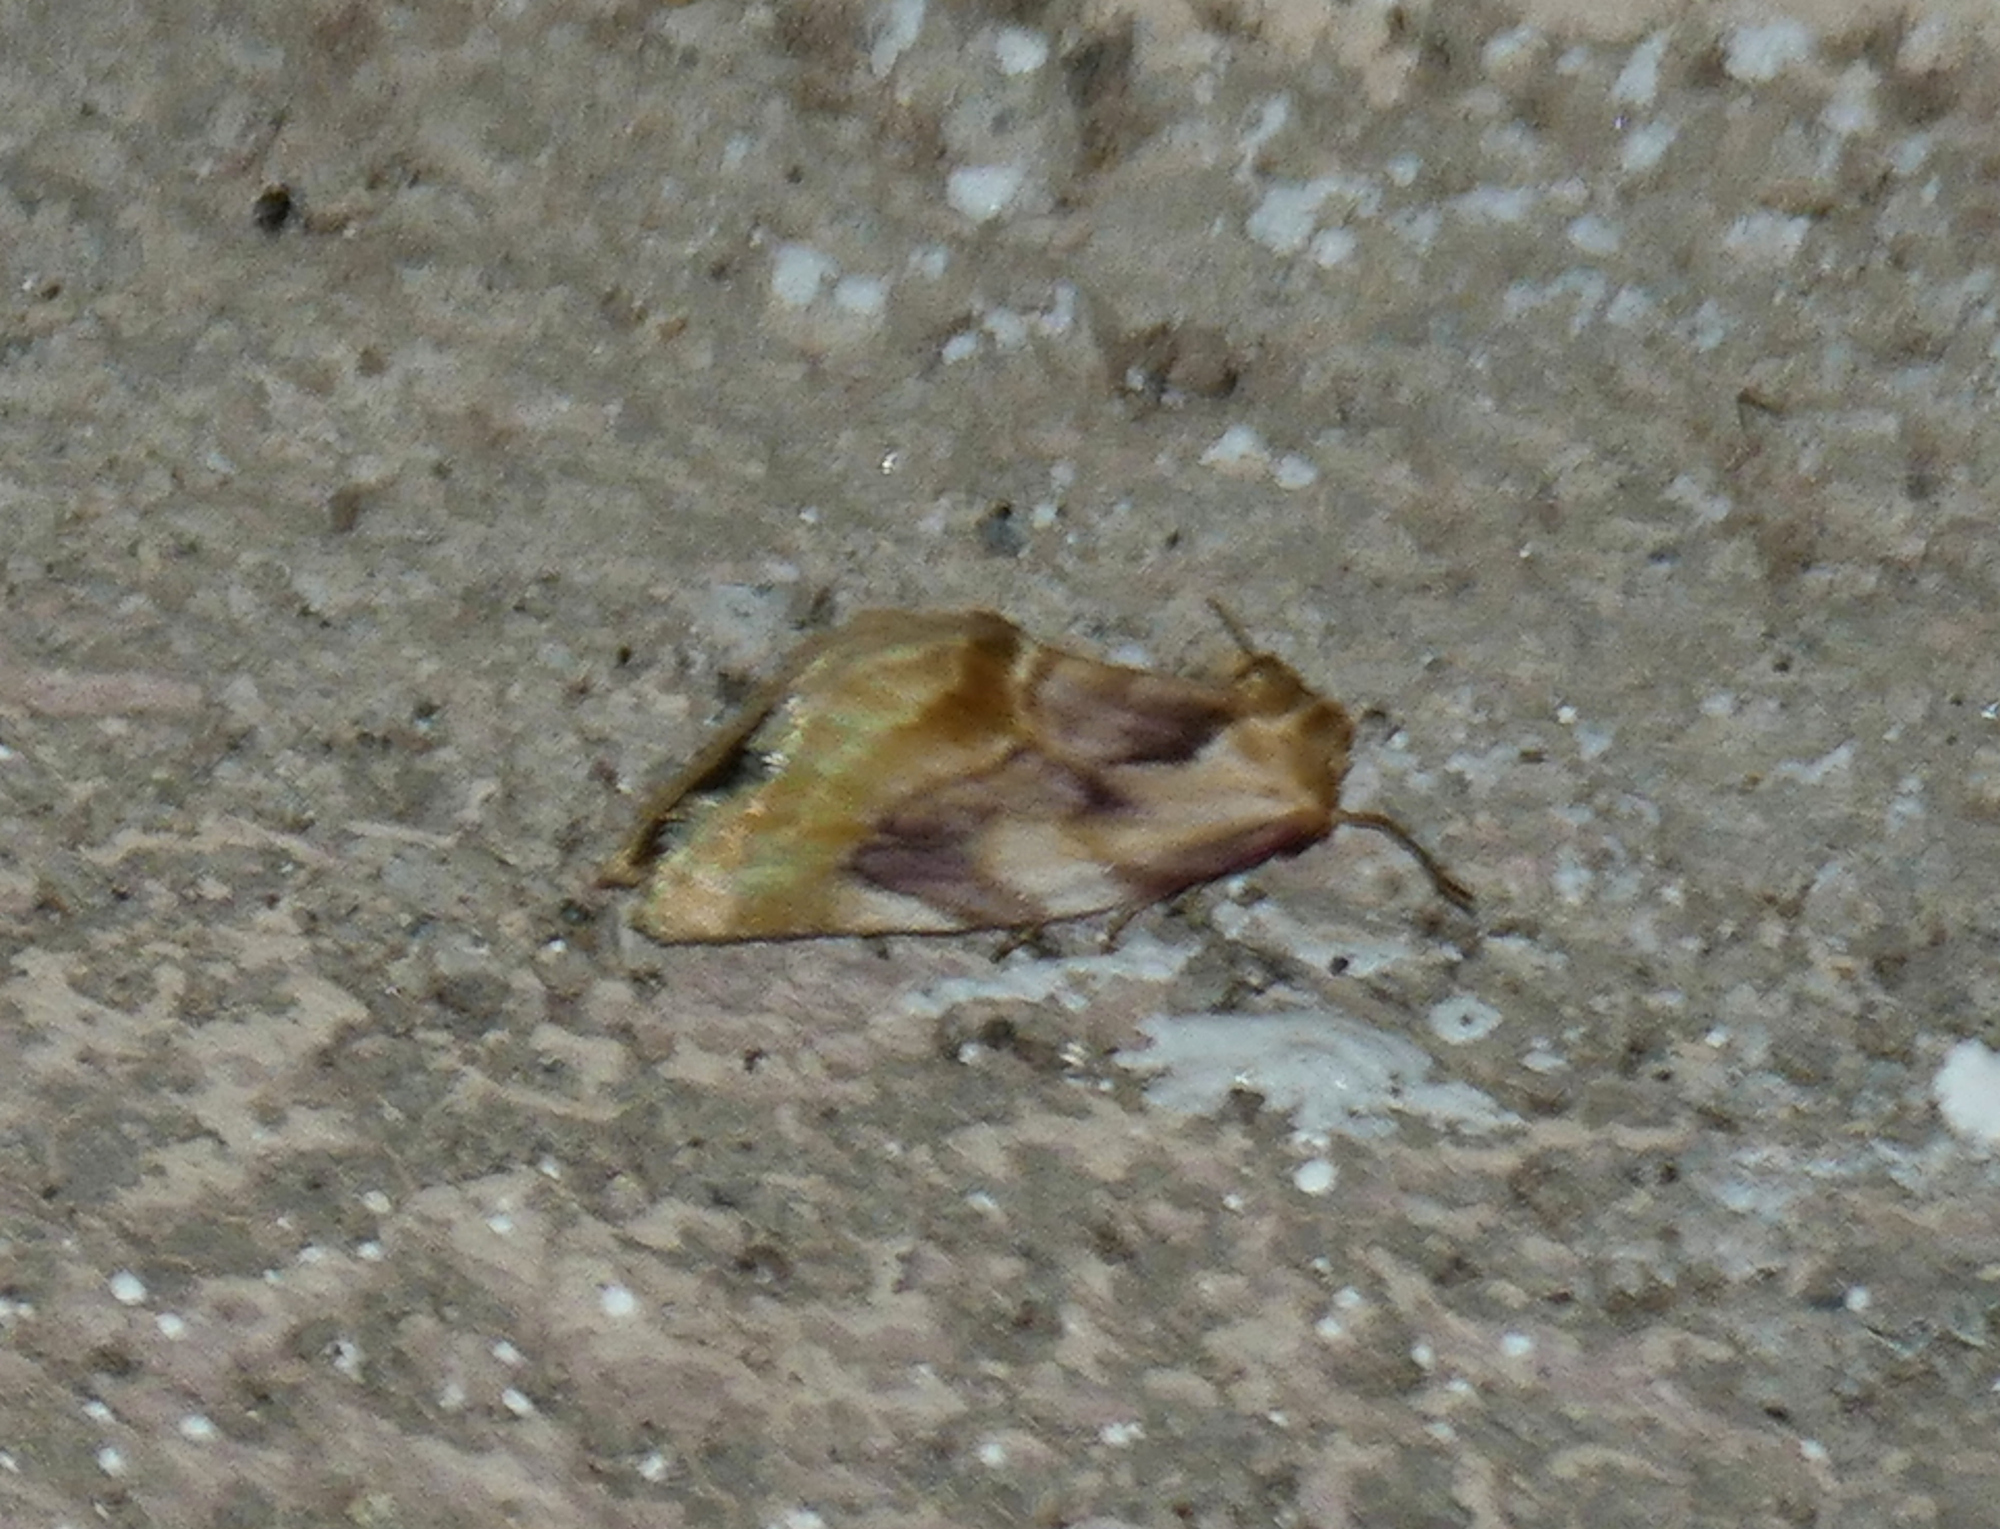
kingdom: Animalia
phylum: Arthropoda
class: Insecta
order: Lepidoptera
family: Noctuidae
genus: Chamaeclea
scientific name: Chamaeclea pernana
